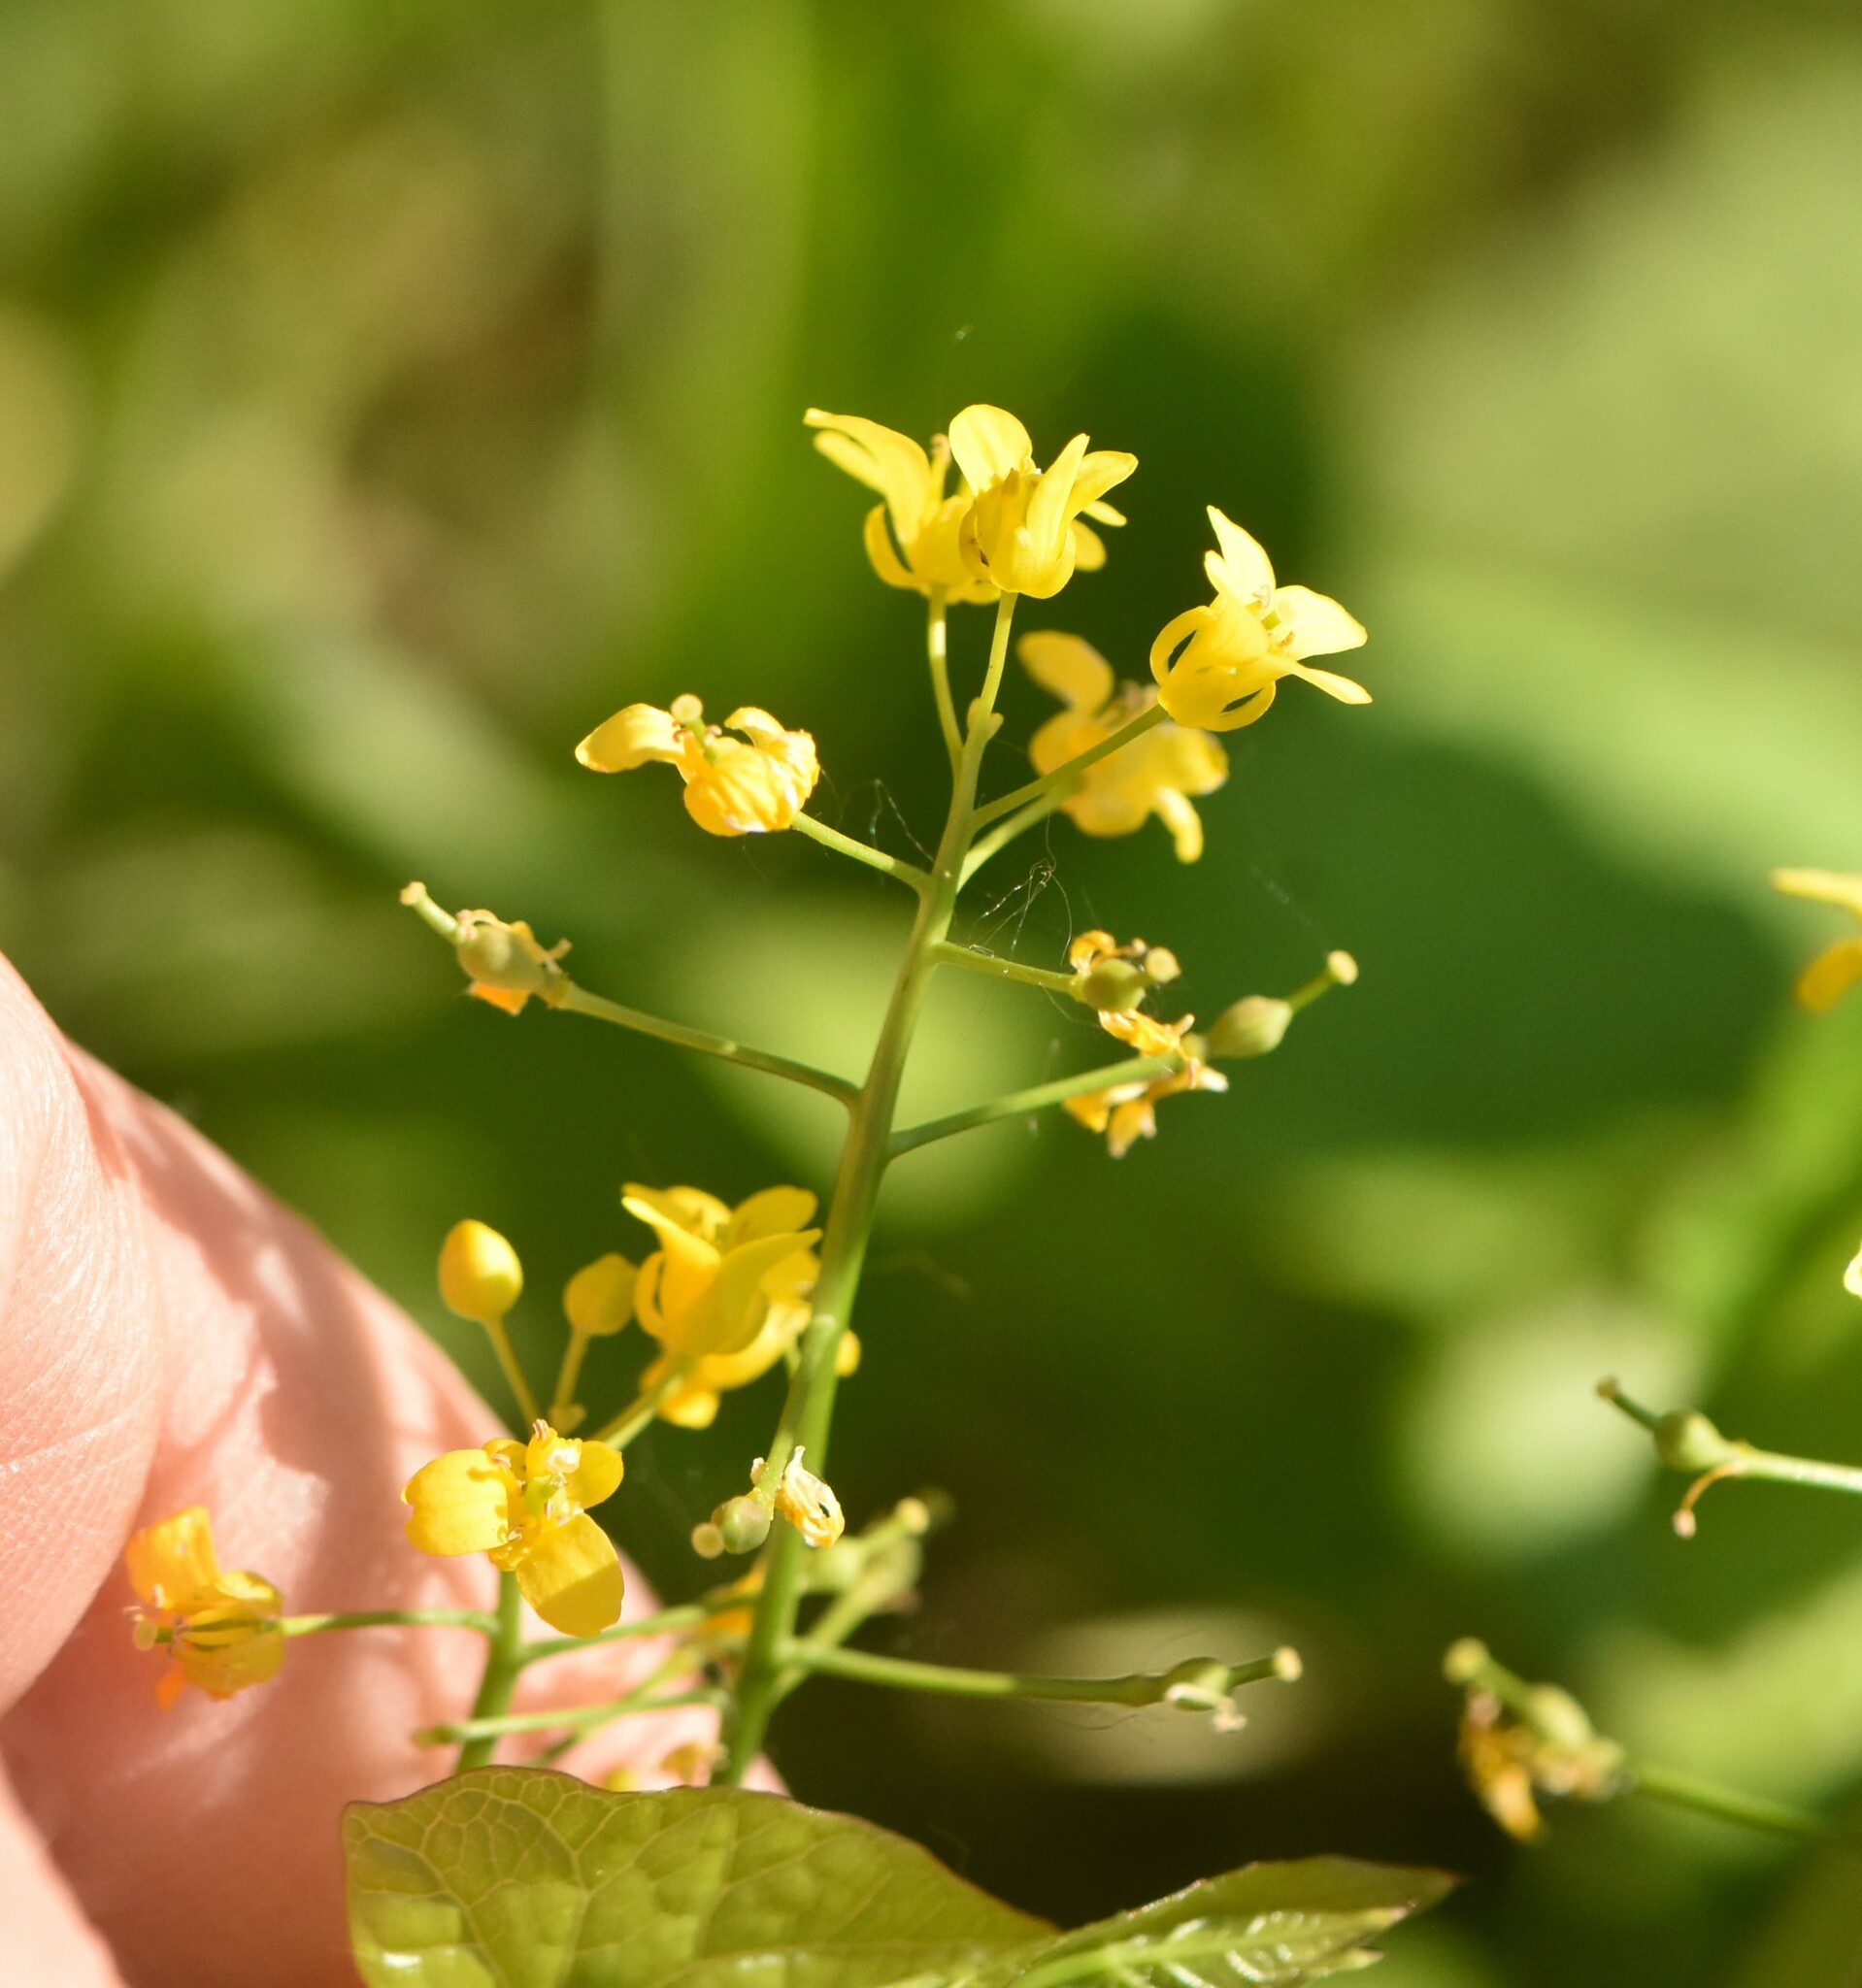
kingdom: Plantae
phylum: Tracheophyta
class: Magnoliopsida
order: Brassicales
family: Brassicaceae
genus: Rorippa
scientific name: Rorippa amphibia
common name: Great yellow-cress
